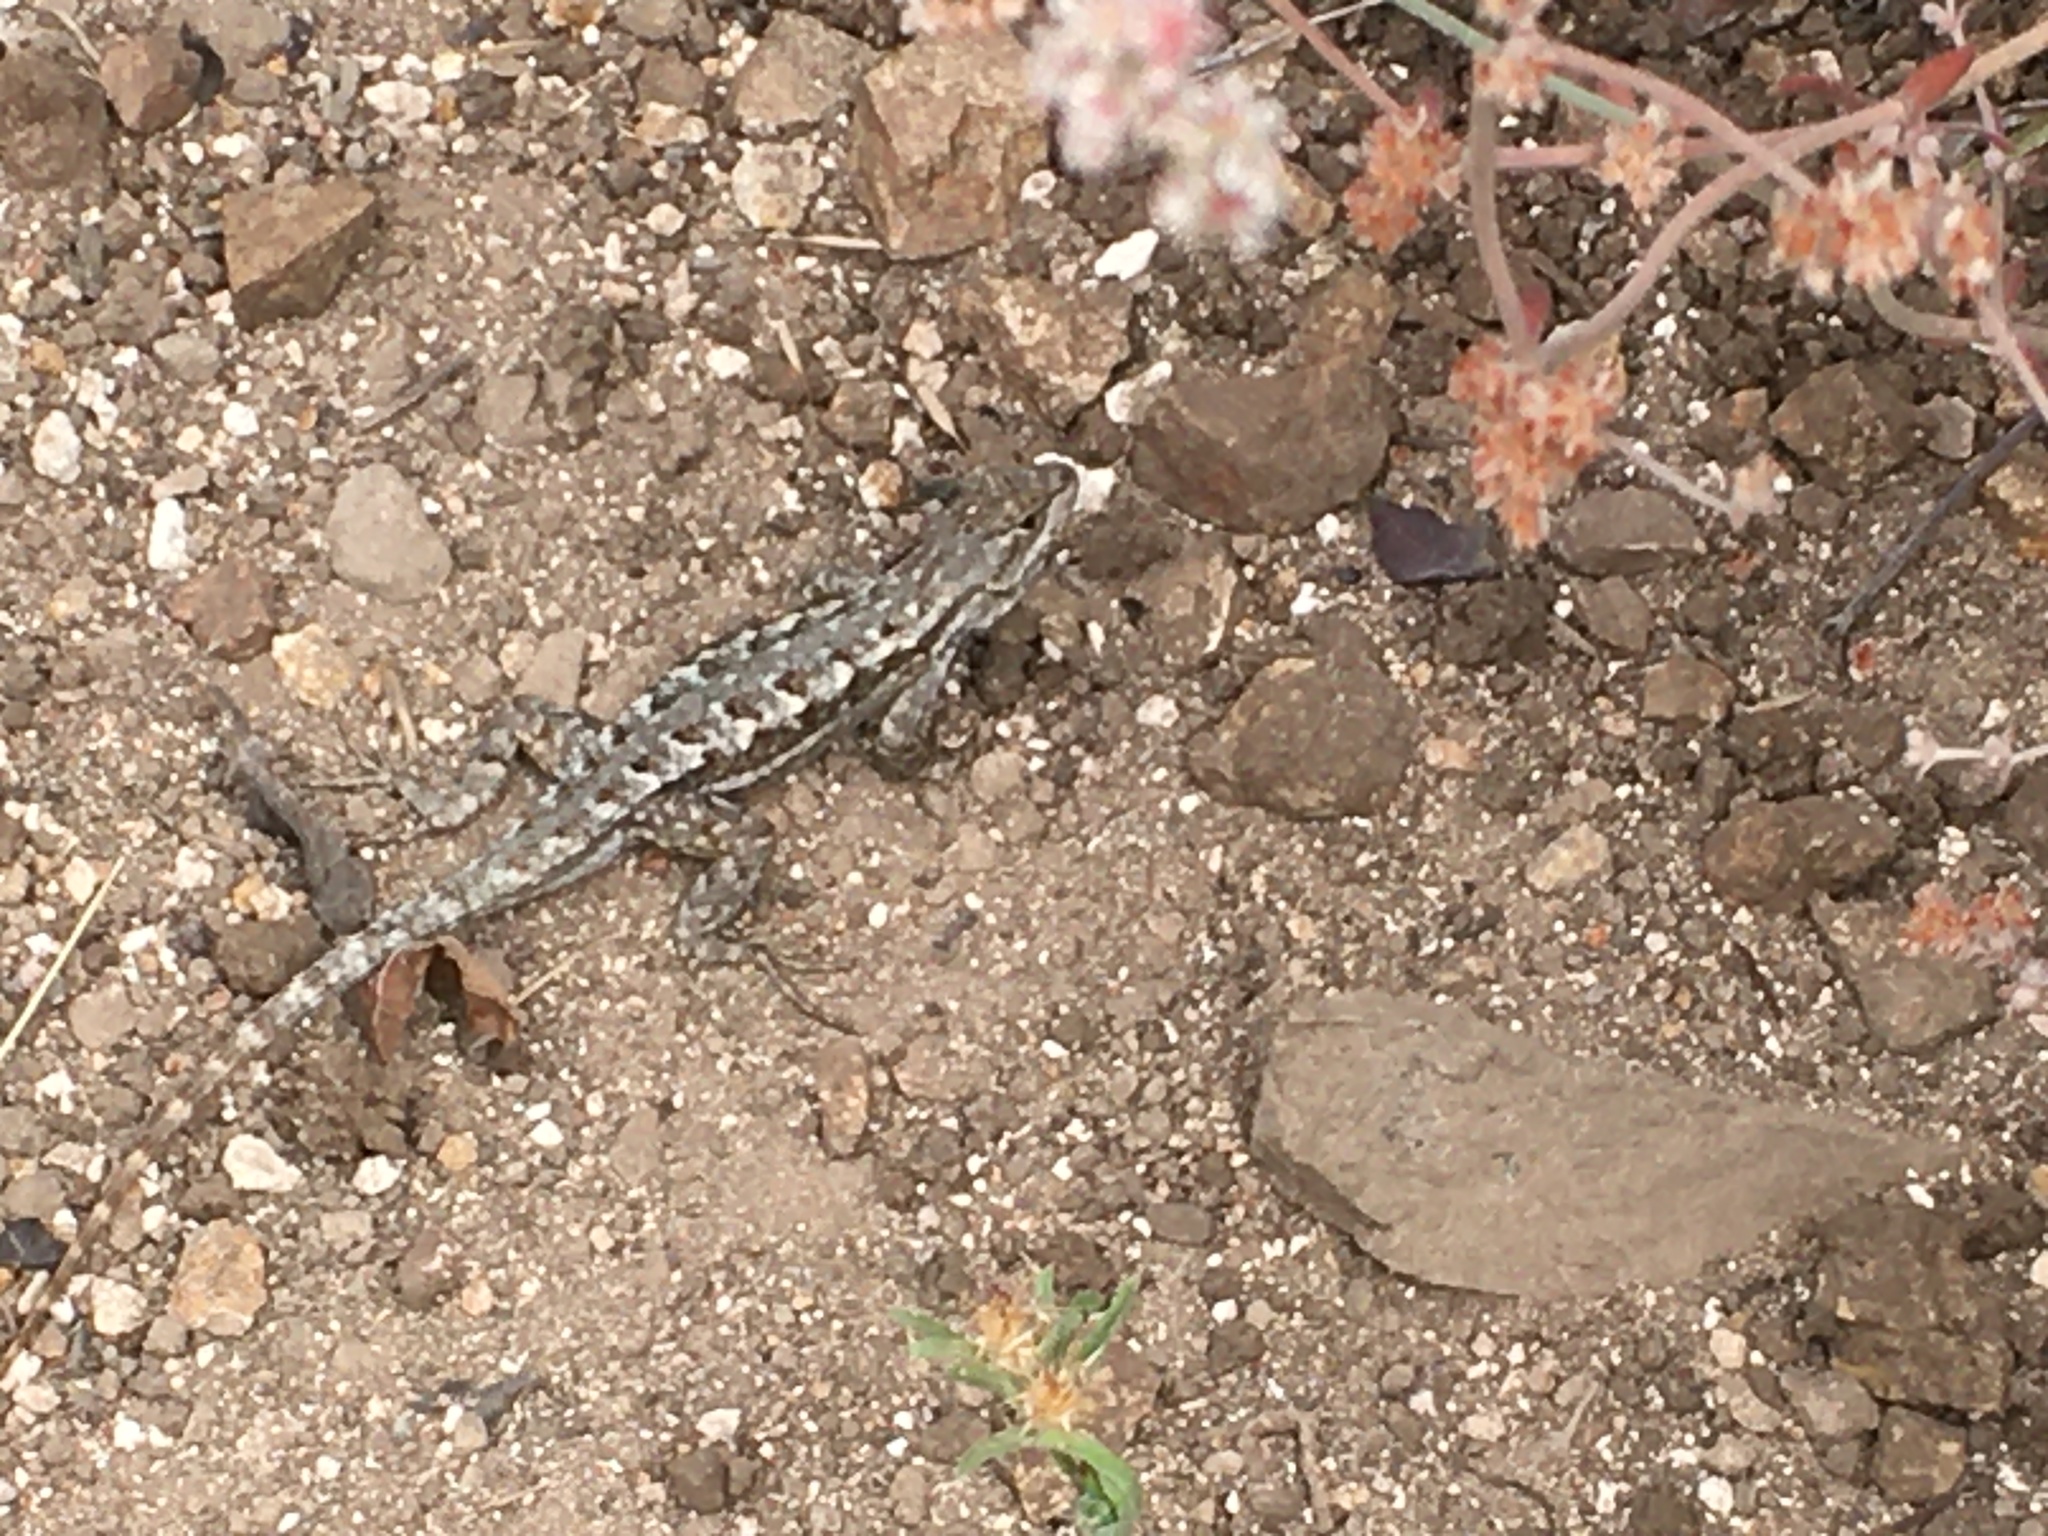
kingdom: Animalia
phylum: Chordata
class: Squamata
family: Phrynosomatidae
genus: Sceloporus
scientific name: Sceloporus occidentalis
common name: Western fence lizard
